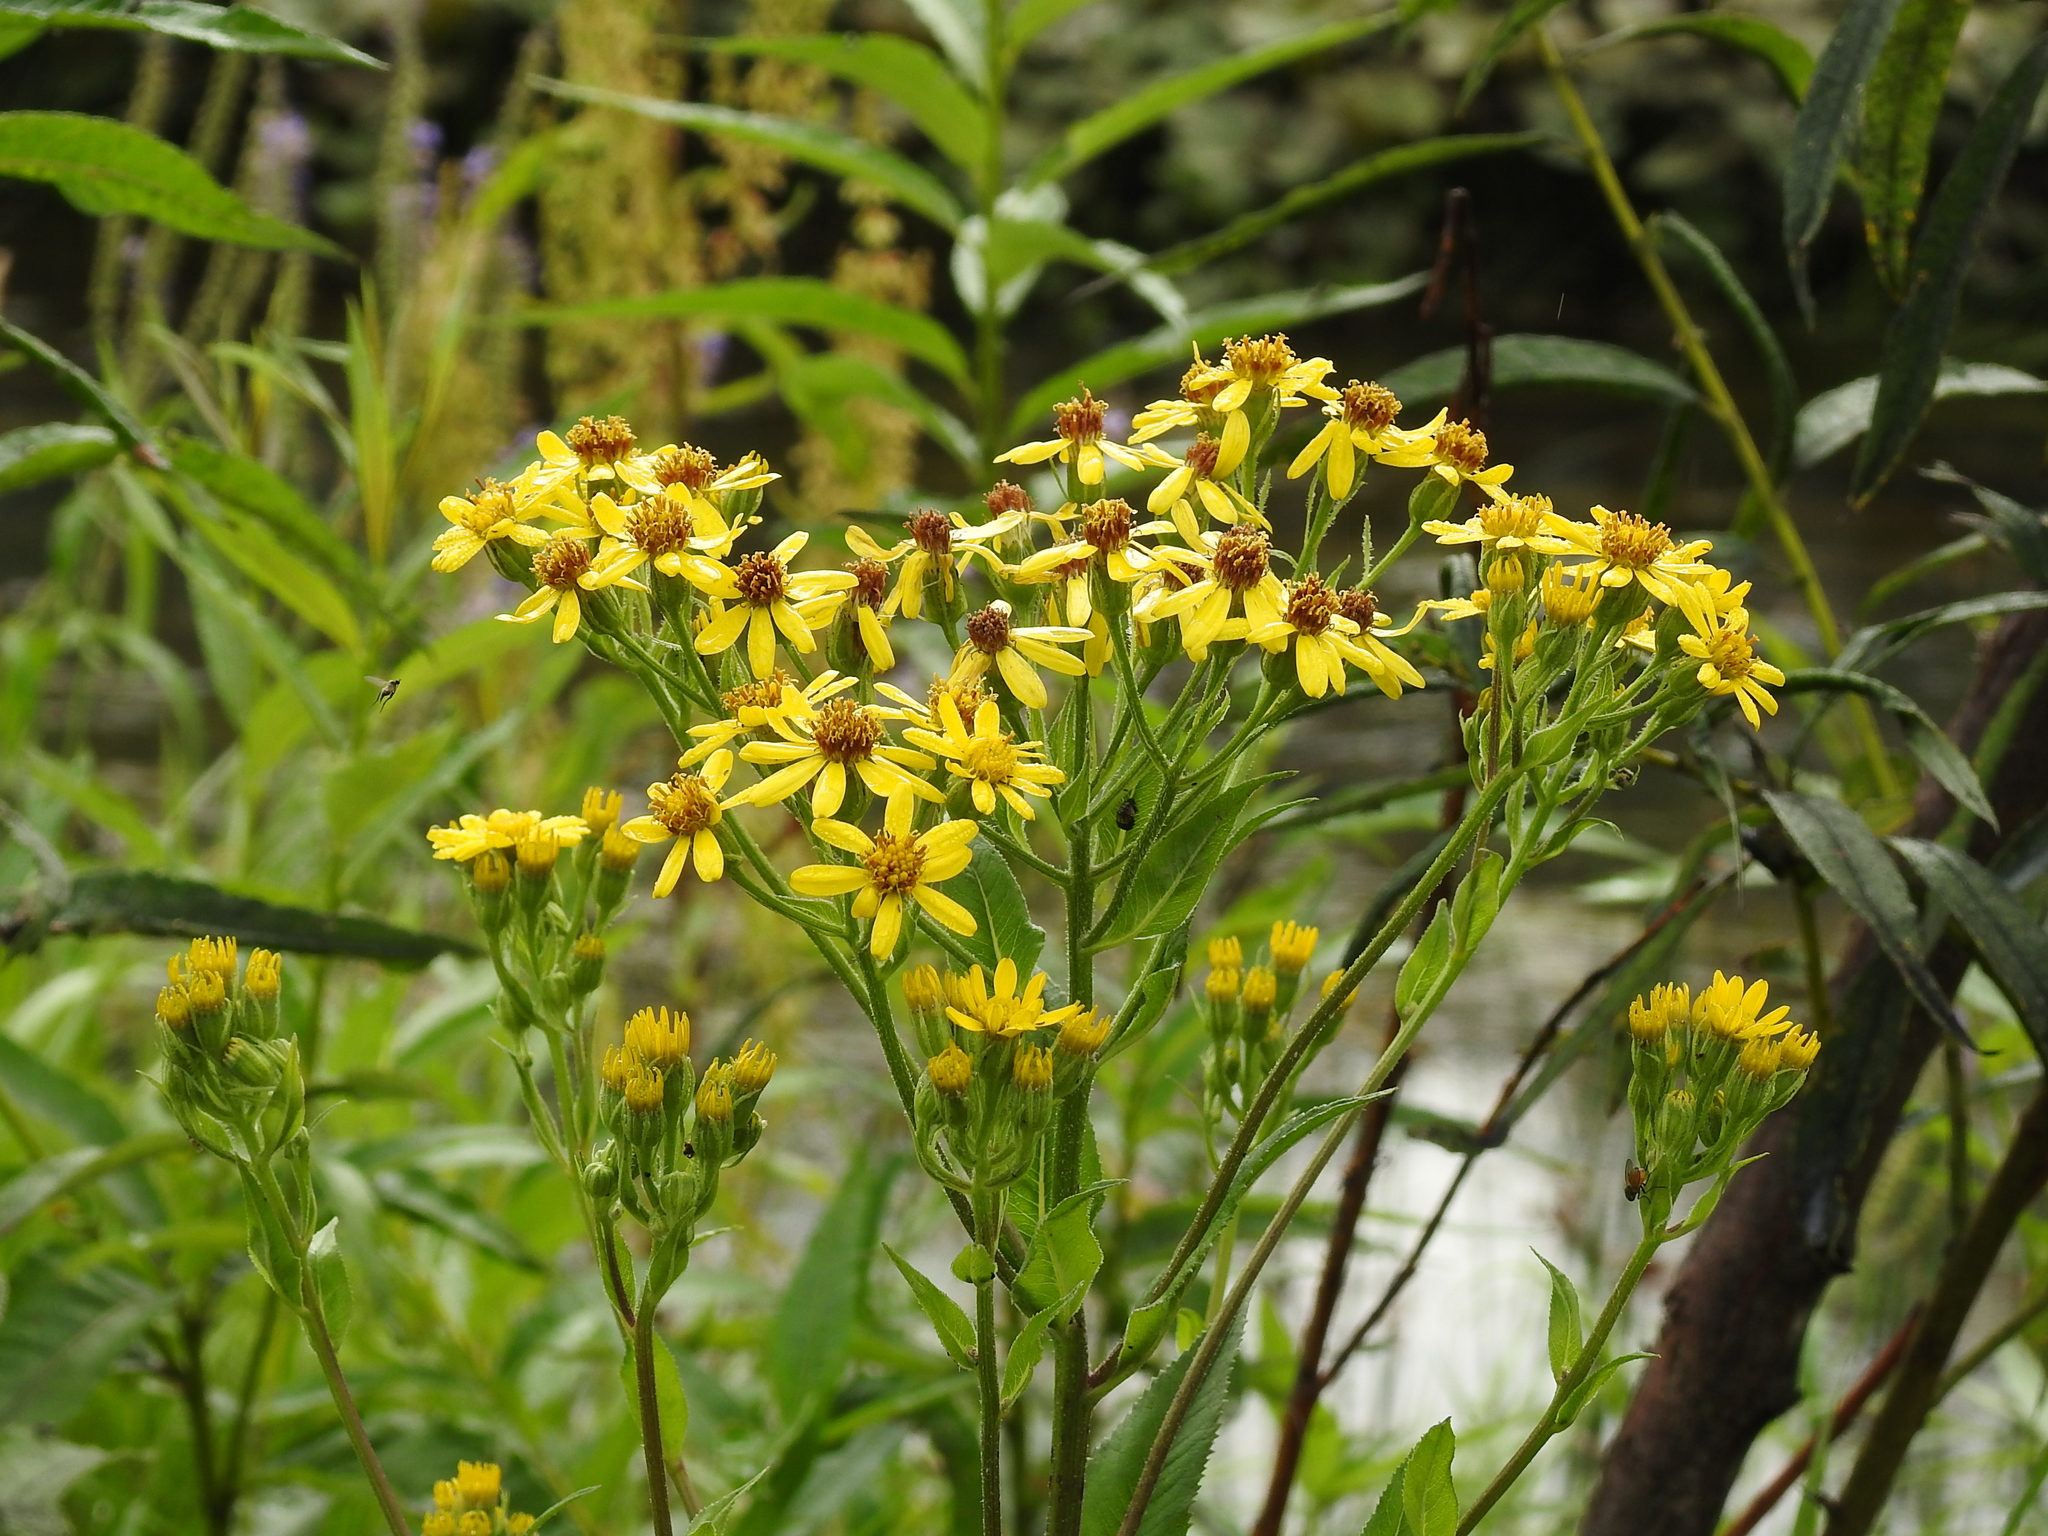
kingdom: Plantae
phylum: Tracheophyta
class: Magnoliopsida
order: Asterales
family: Asteraceae
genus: Senecio
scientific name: Senecio sarracenicus
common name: Broad-leaved ragwort
